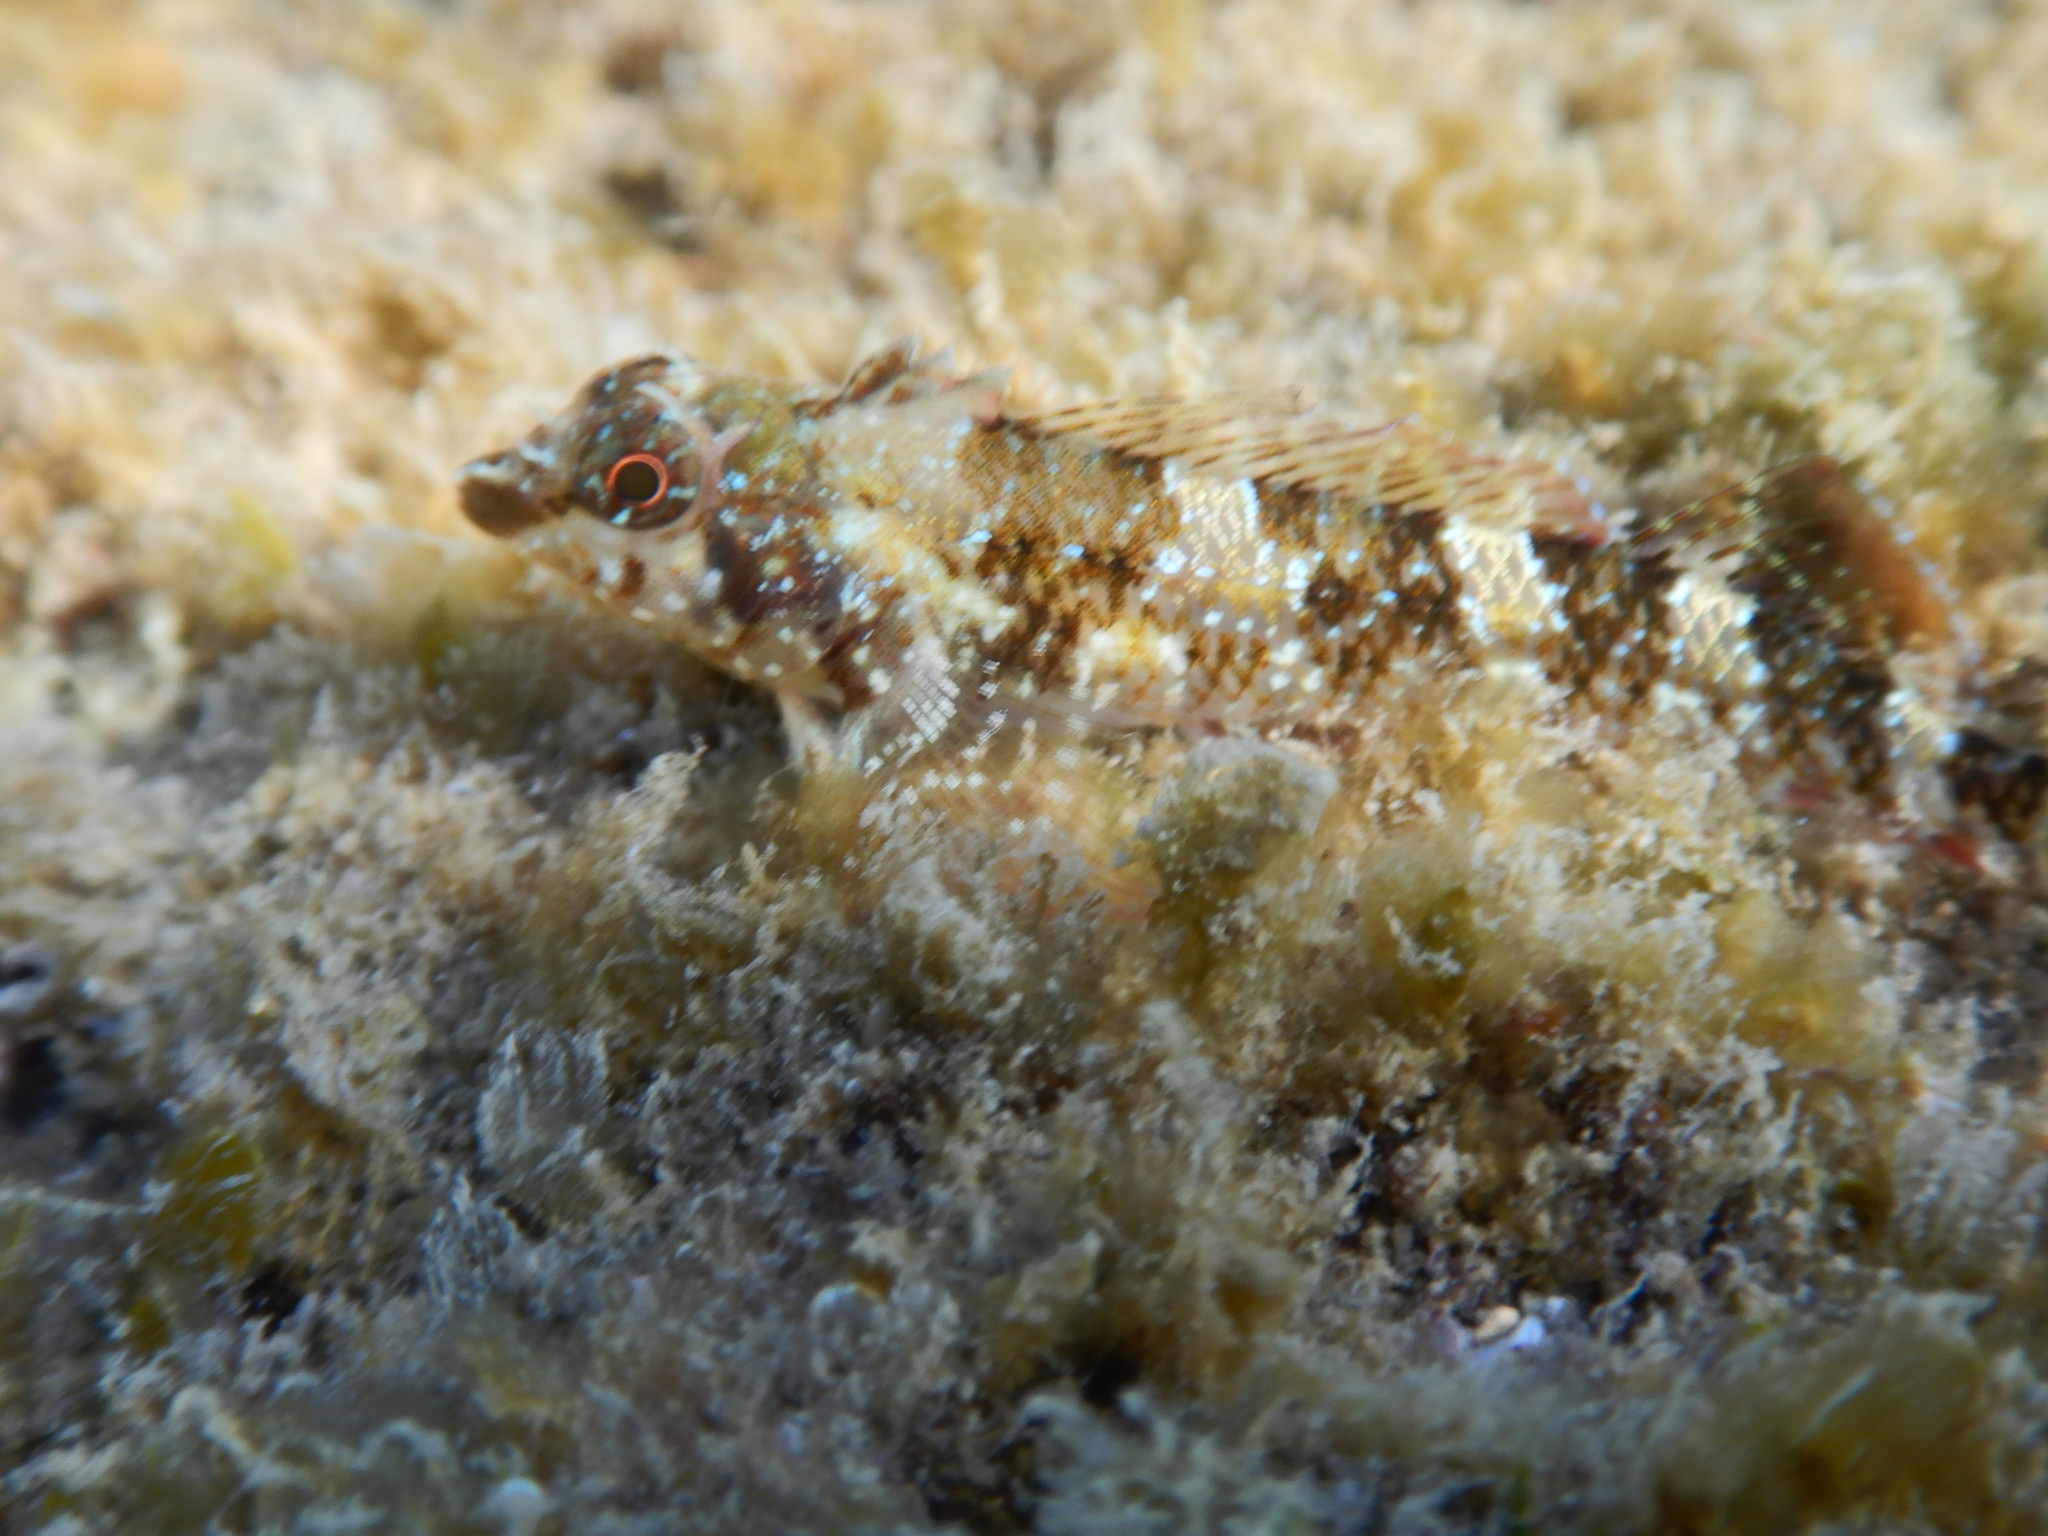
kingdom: Animalia
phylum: Chordata
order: Perciformes
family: Tripterygiidae
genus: Tripterygion
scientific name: Tripterygion tripteronotum
